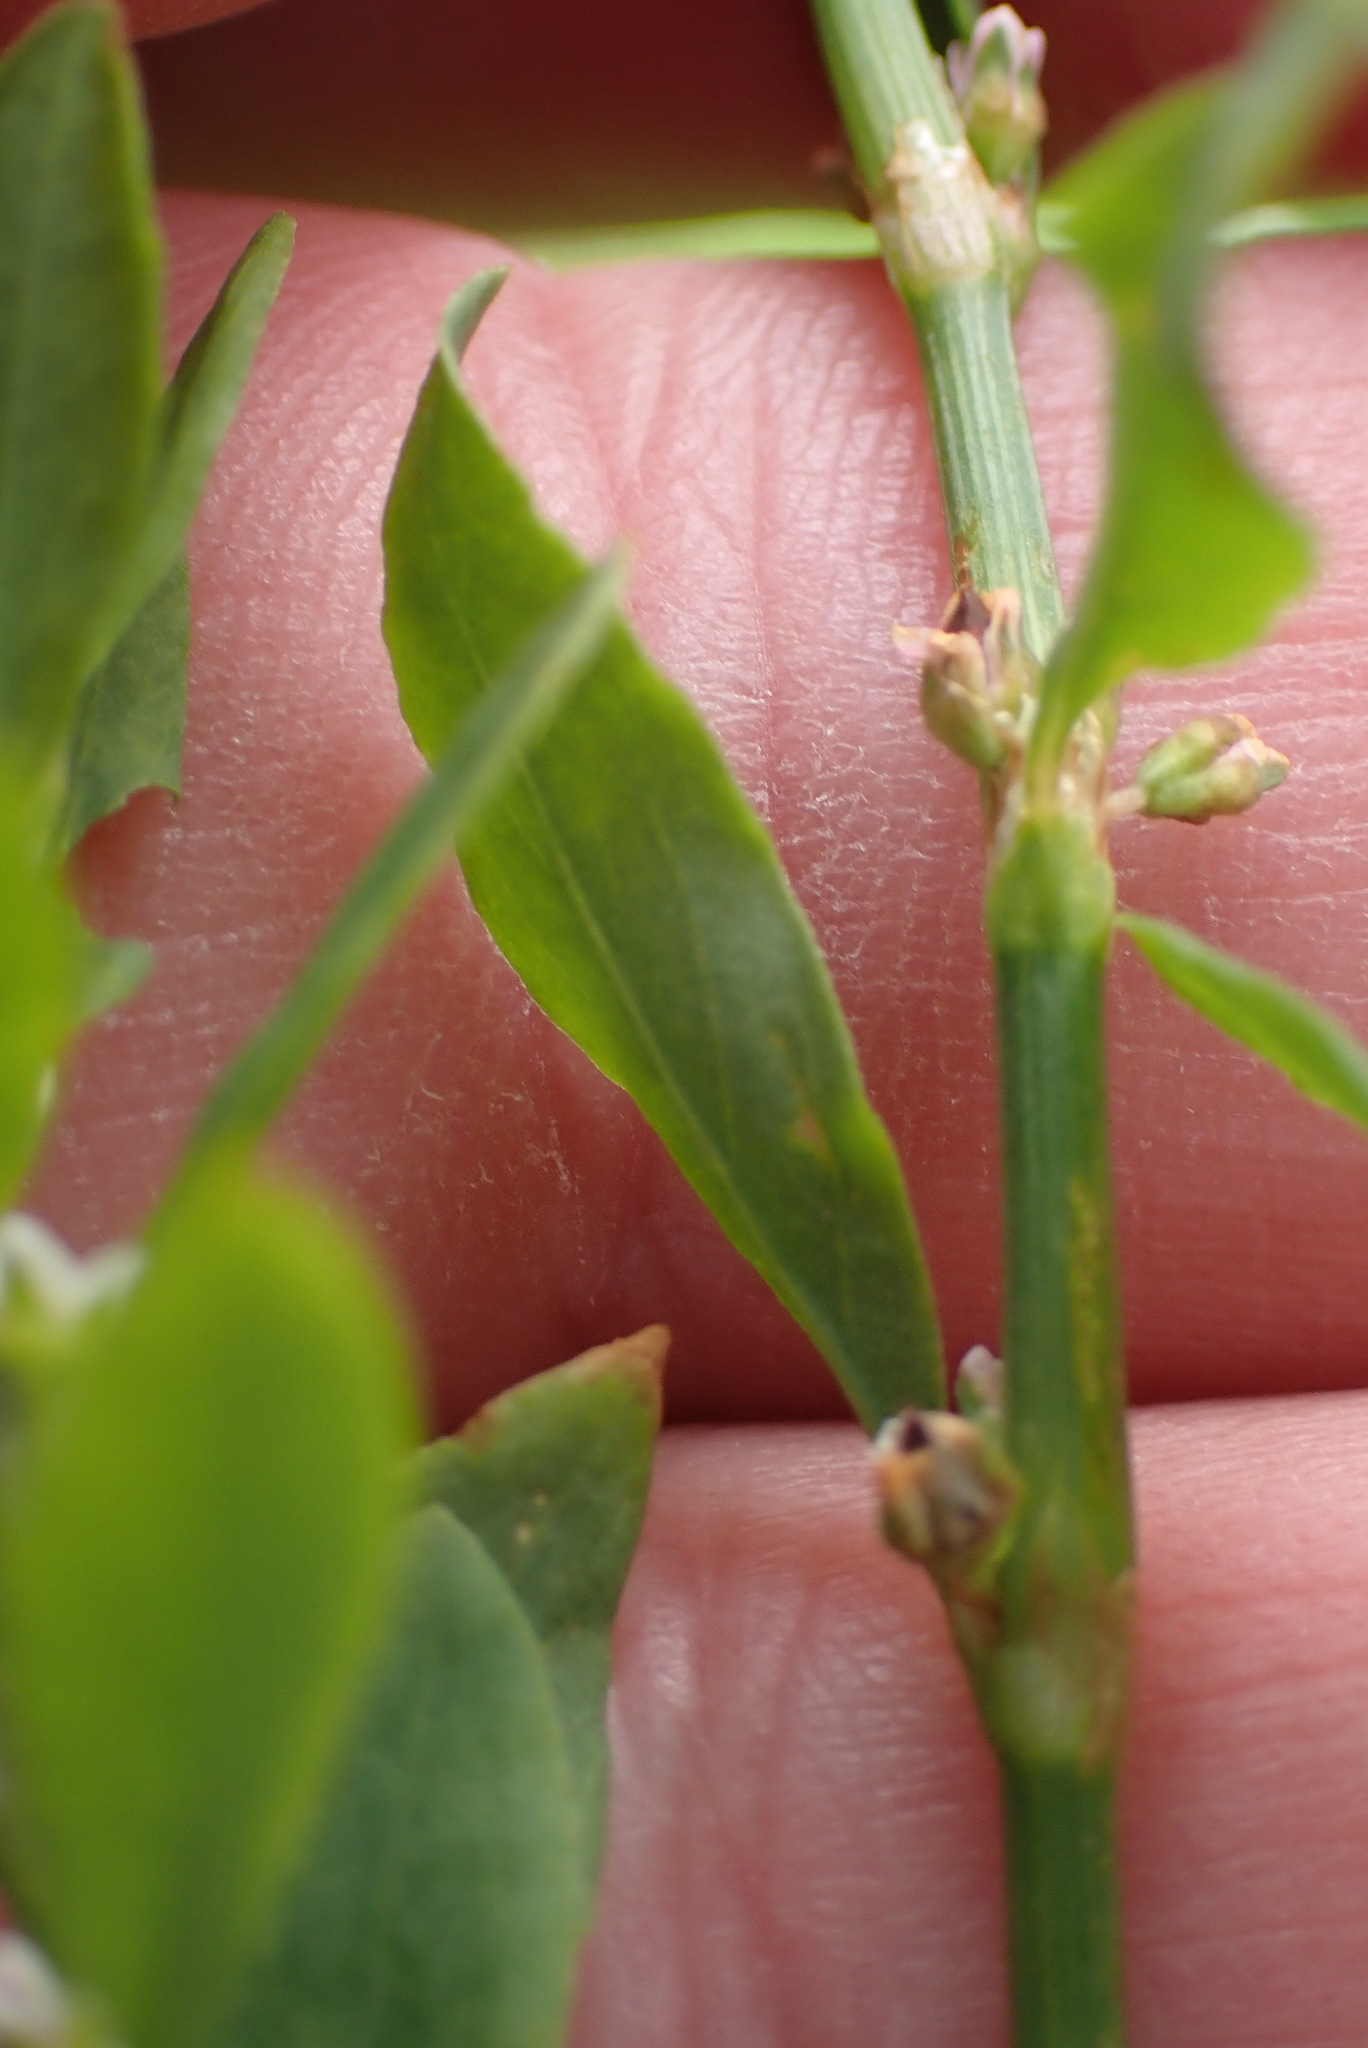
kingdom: Plantae
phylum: Tracheophyta
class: Magnoliopsida
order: Caryophyllales
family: Polygonaceae
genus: Polygonum
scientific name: Polygonum aviculare
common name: Prostrate knotweed
